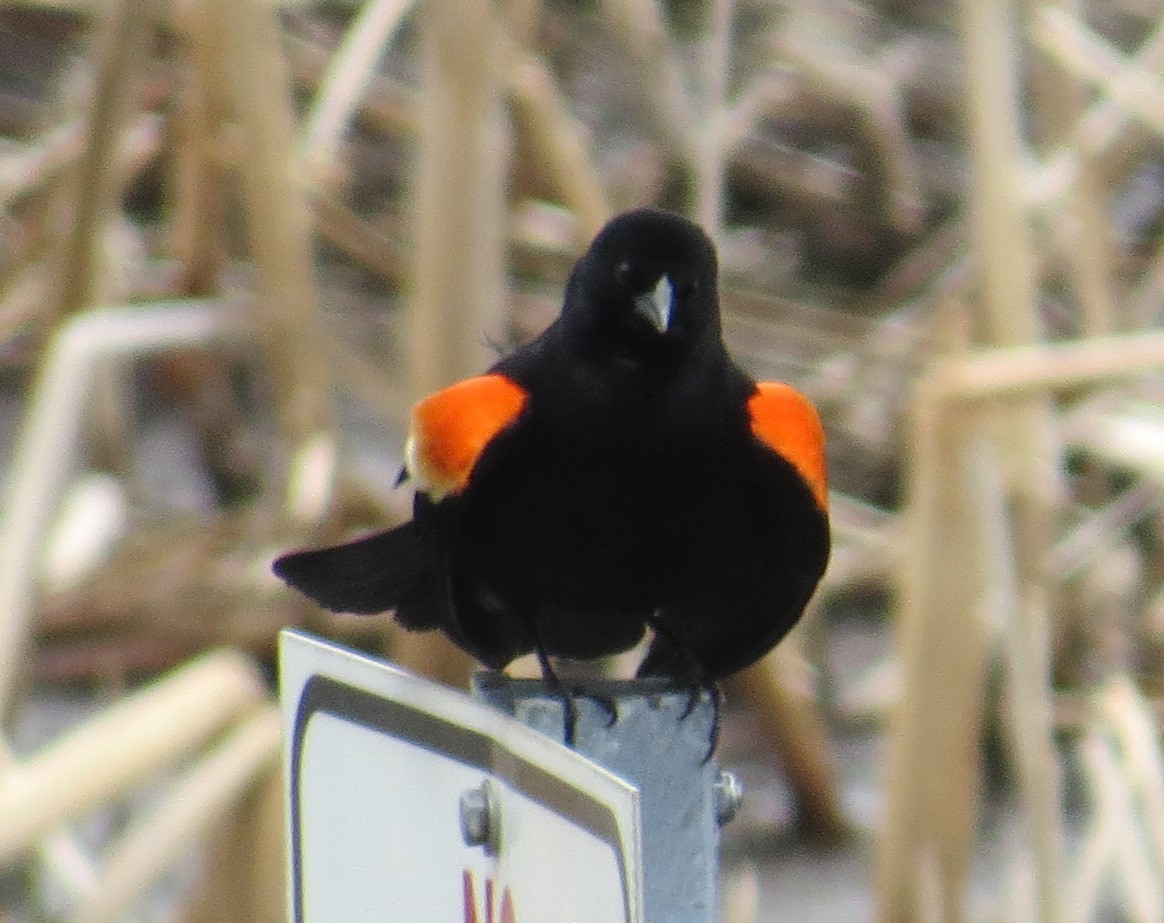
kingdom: Animalia
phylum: Chordata
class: Aves
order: Passeriformes
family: Icteridae
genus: Agelaius
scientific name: Agelaius phoeniceus
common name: Red-winged blackbird
